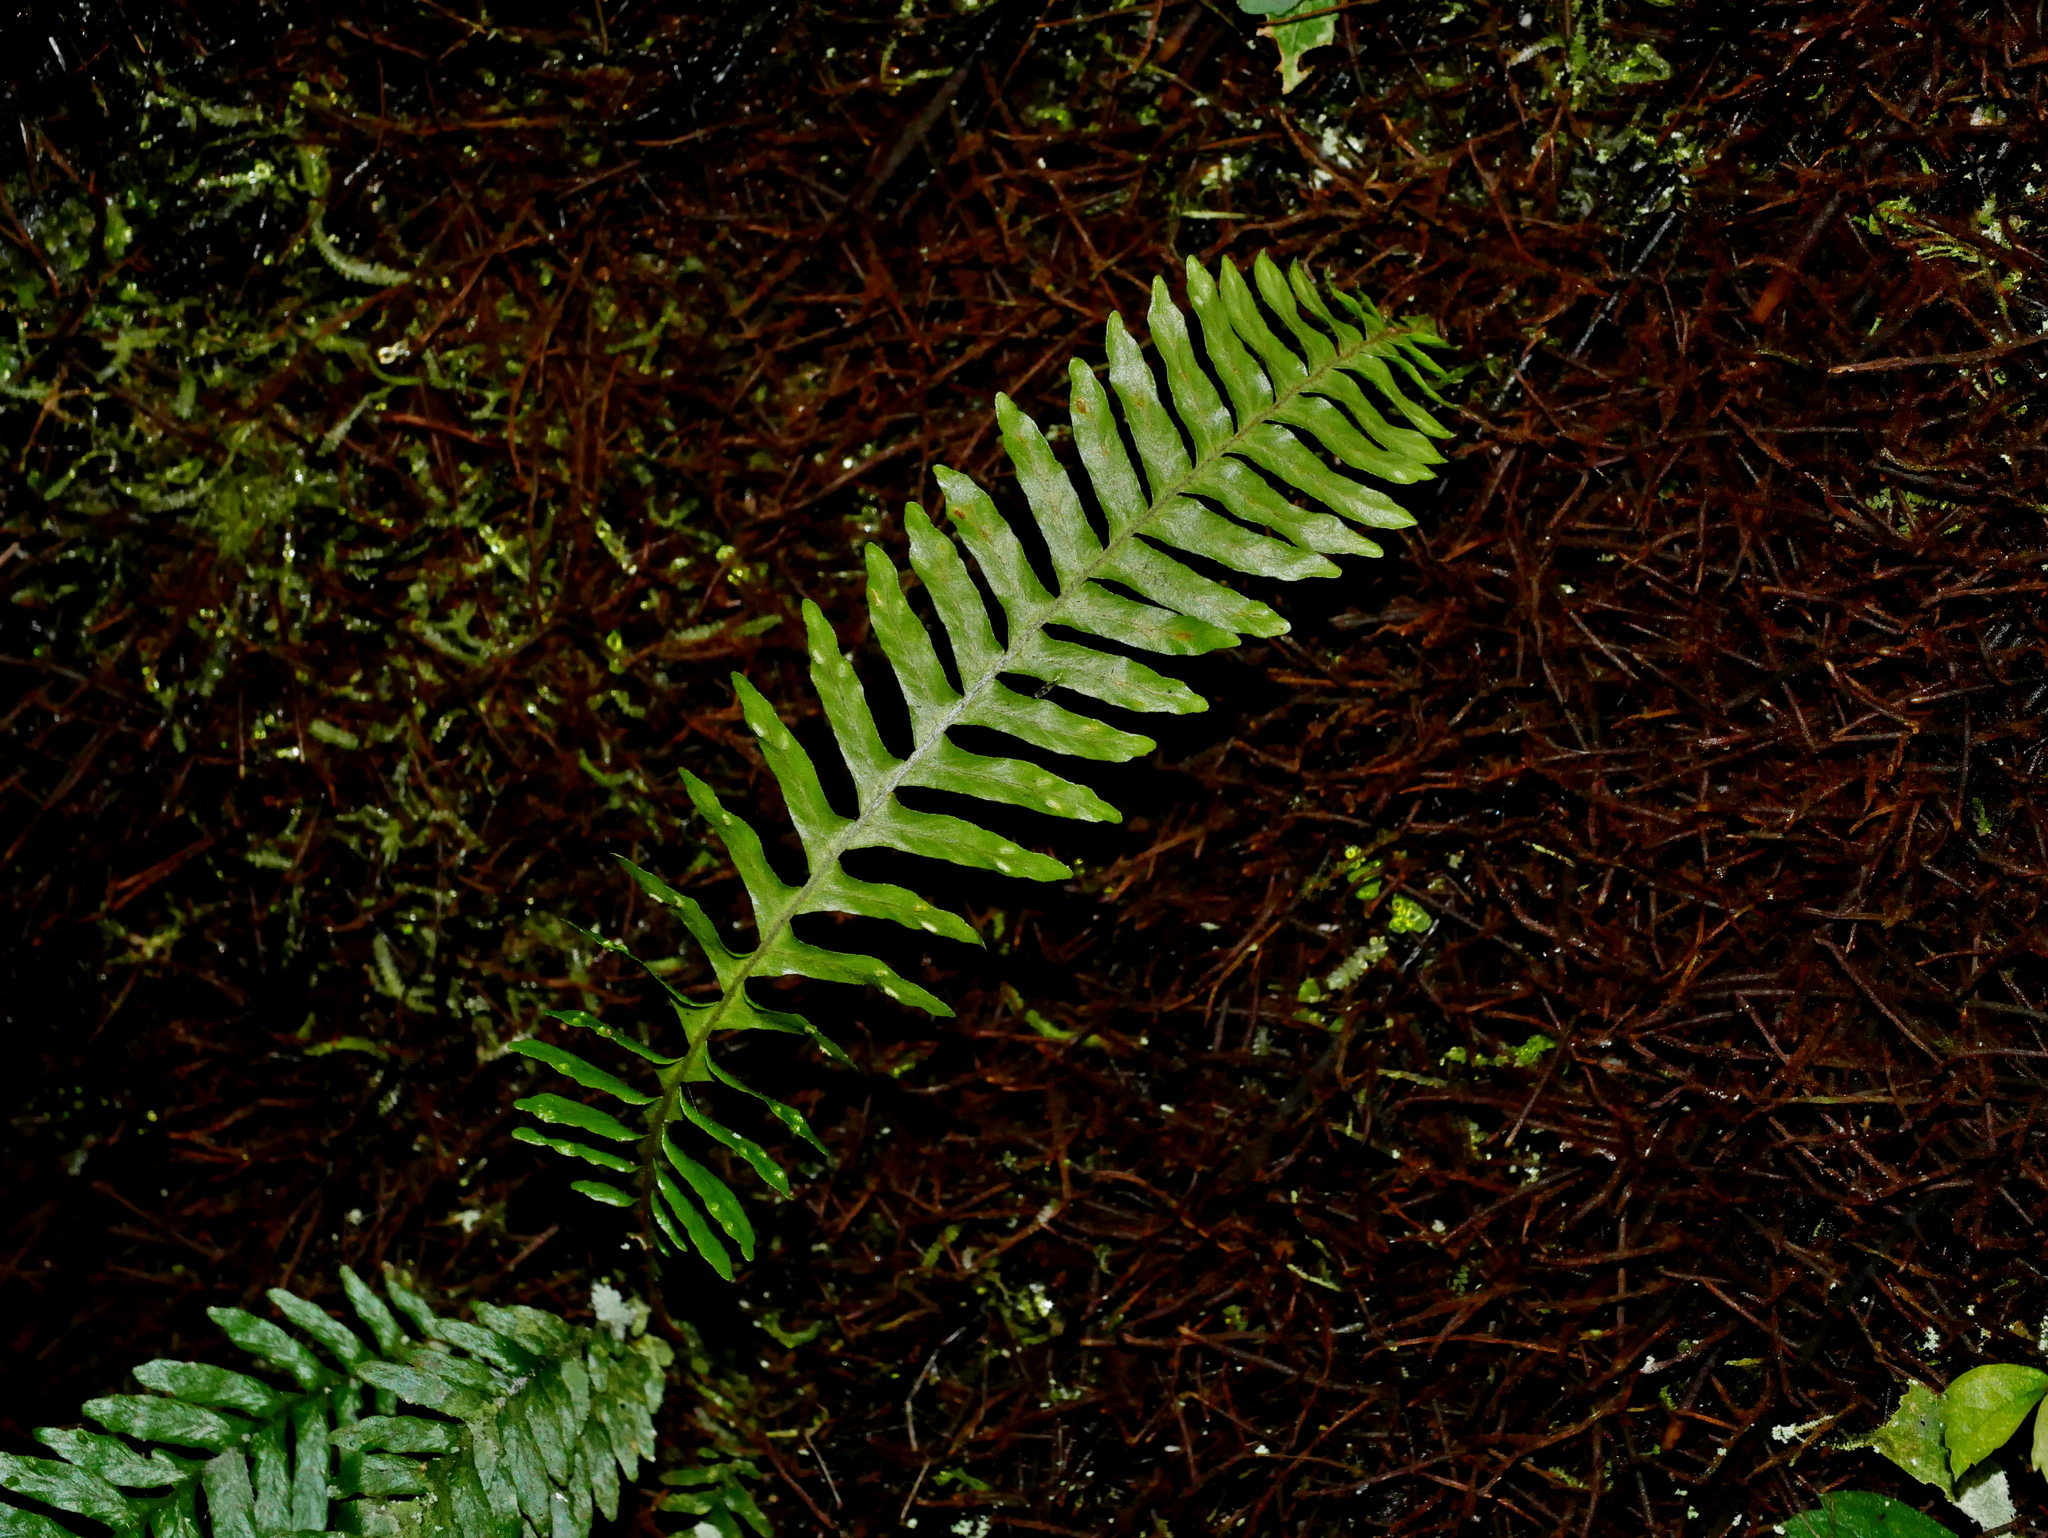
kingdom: Plantae
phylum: Tracheophyta
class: Polypodiopsida
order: Polypodiales
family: Polypodiaceae
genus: Prosaptia
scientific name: Prosaptia obliquata
